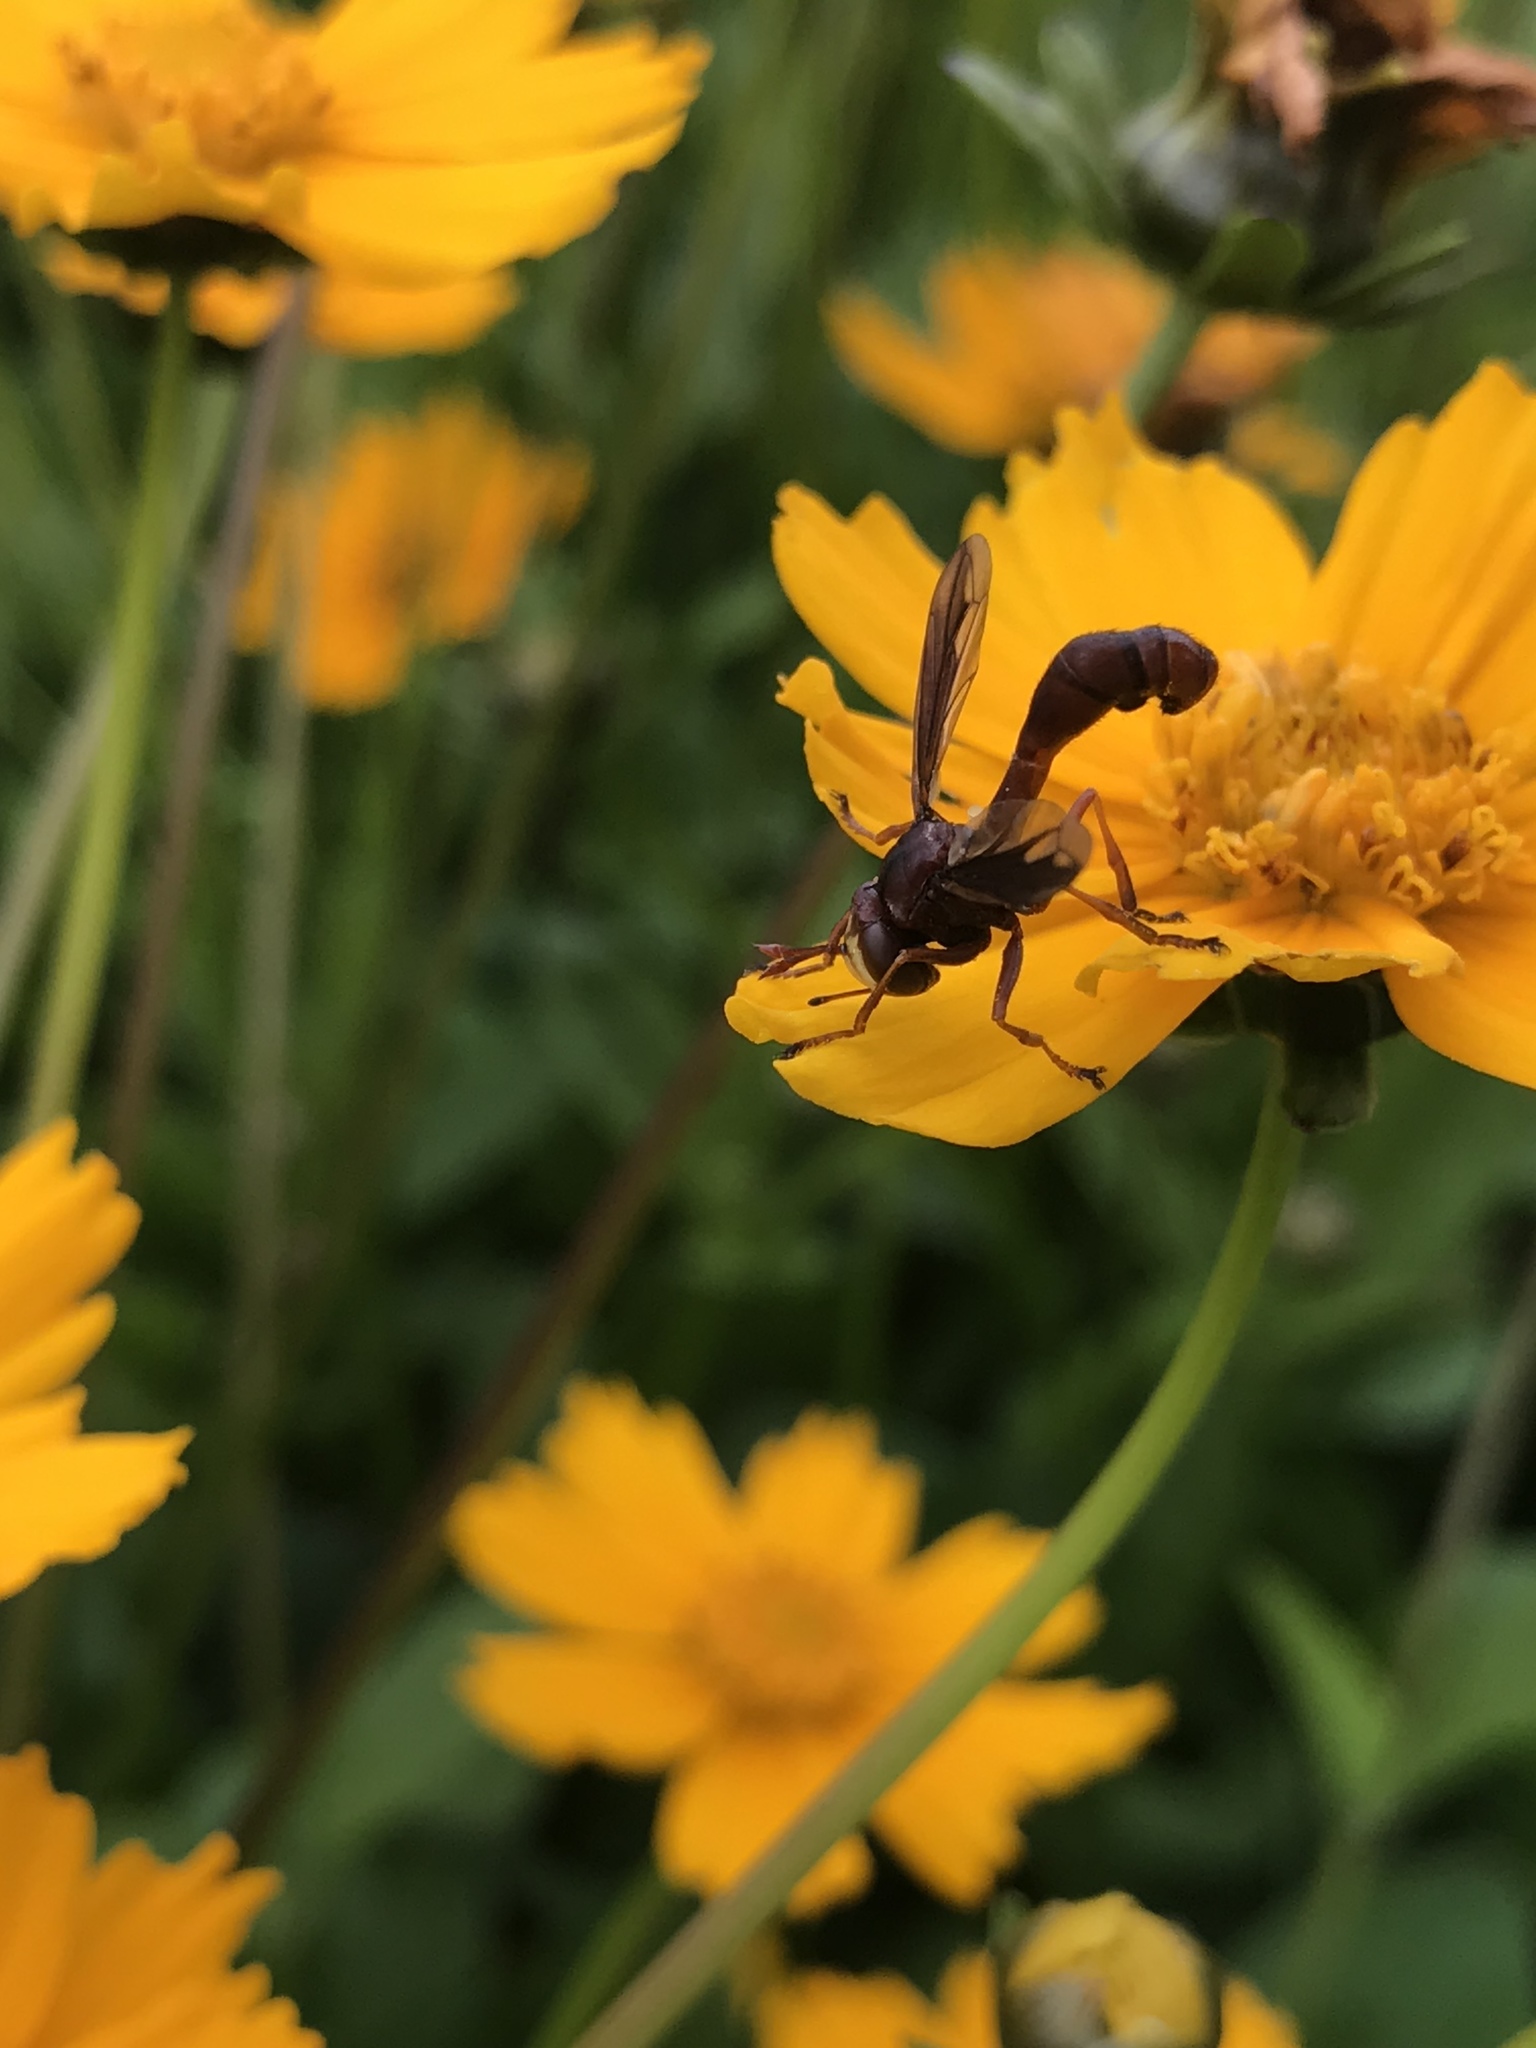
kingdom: Animalia
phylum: Arthropoda
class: Insecta
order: Diptera
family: Conopidae
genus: Physocephala
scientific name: Physocephala burgessi
